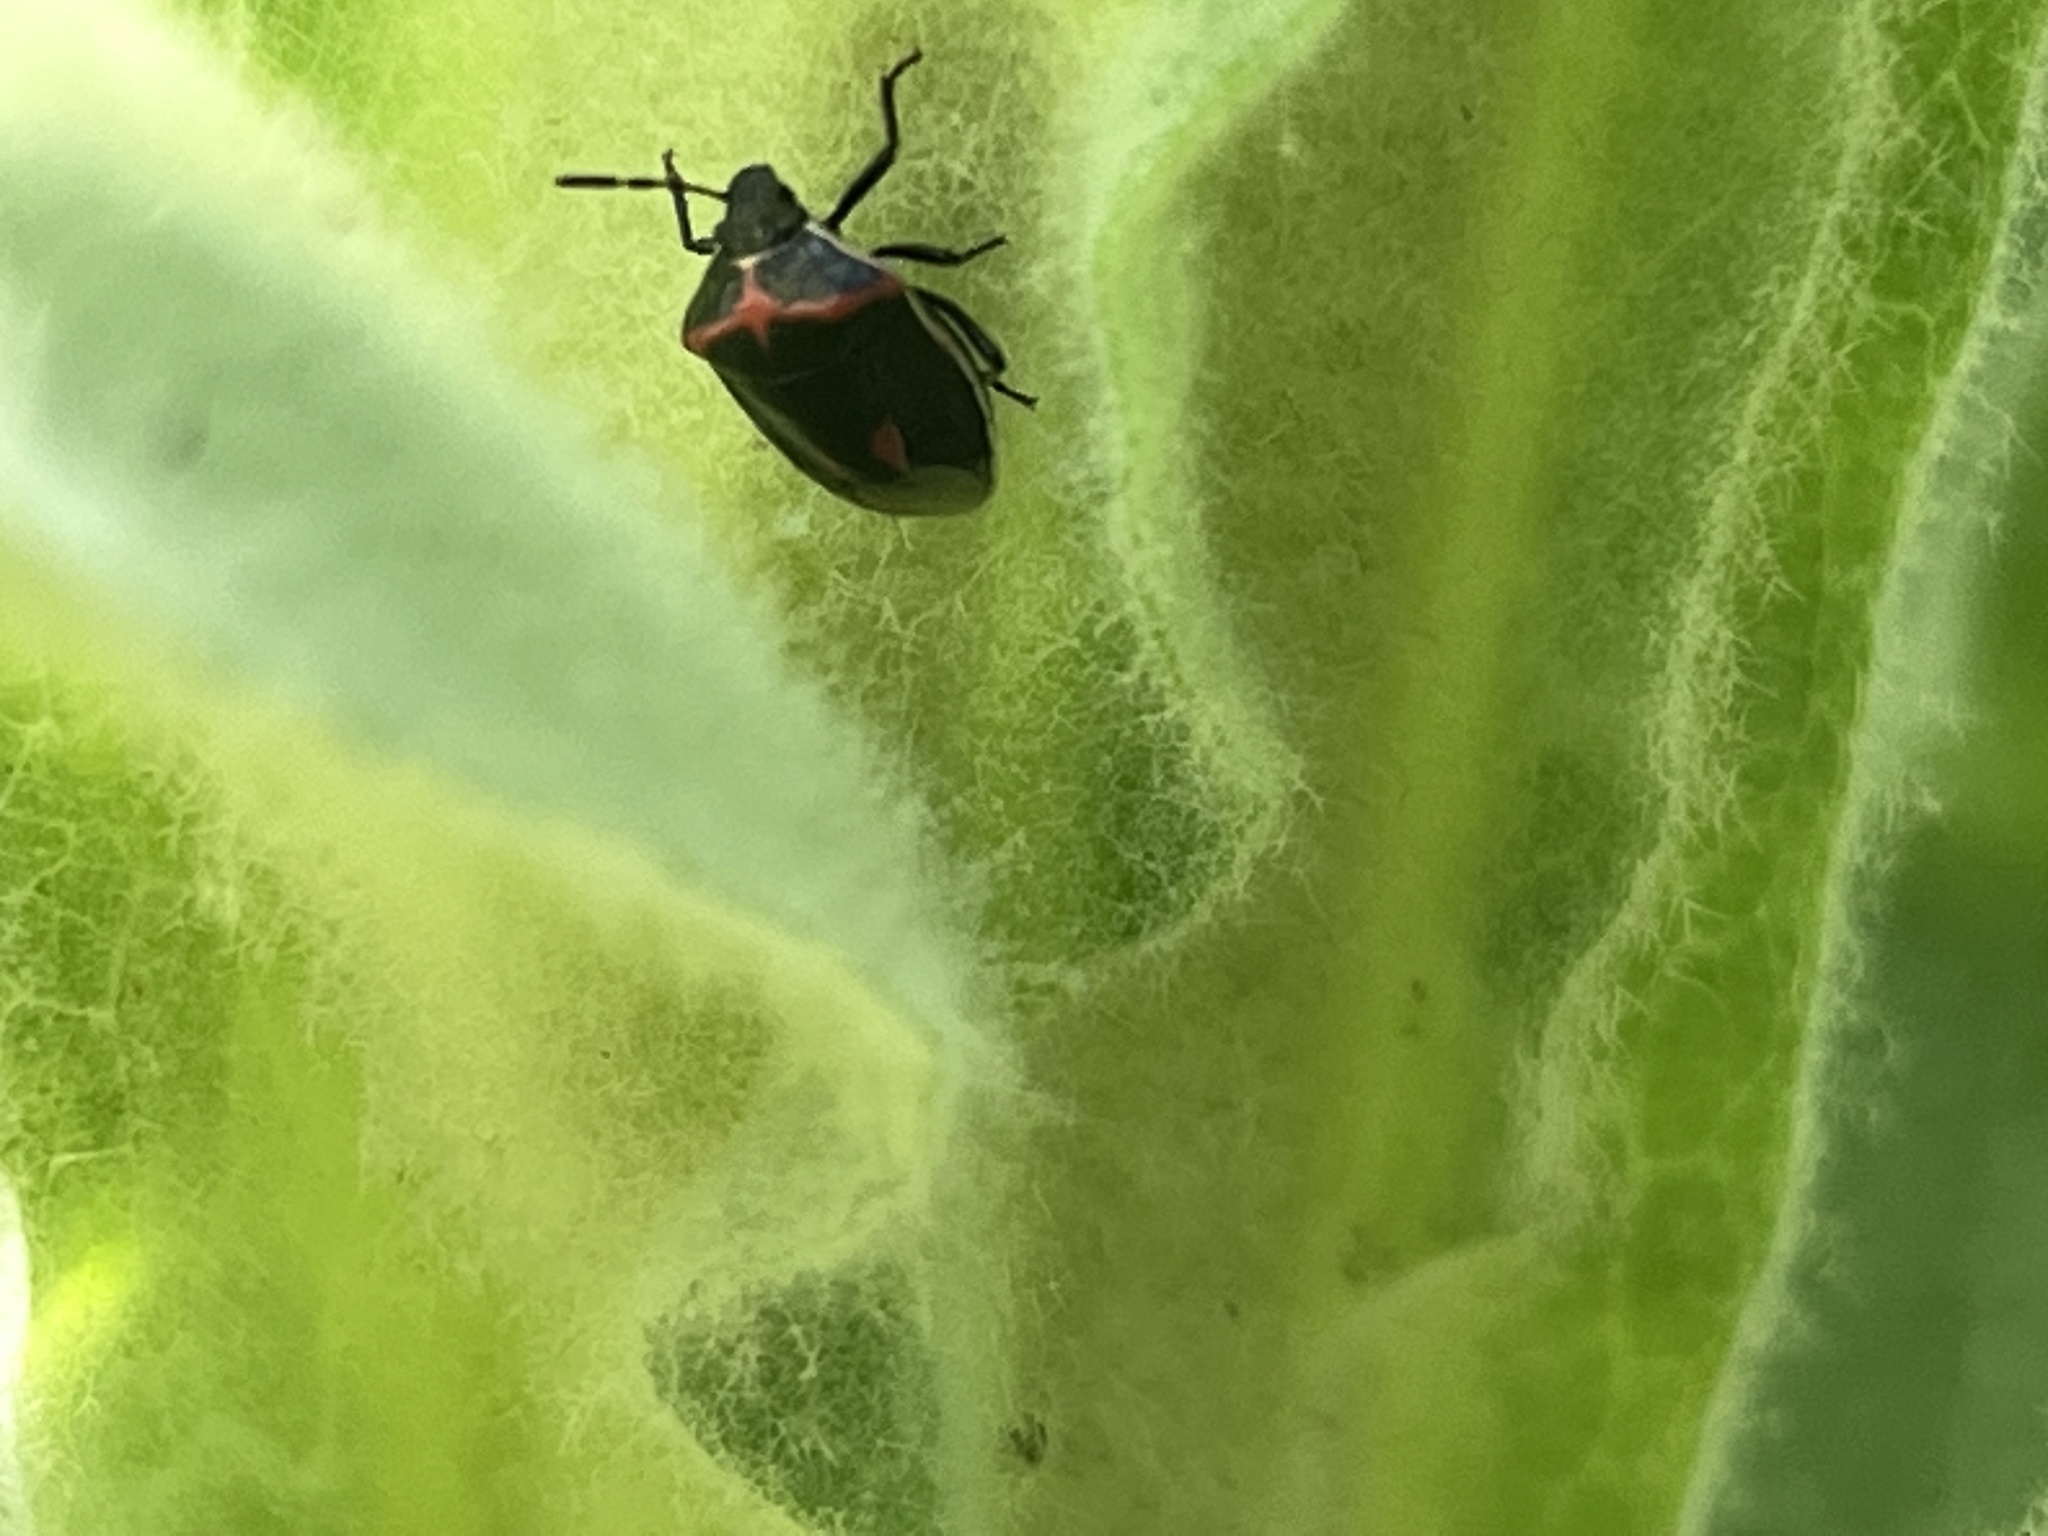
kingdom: Animalia
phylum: Arthropoda
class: Insecta
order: Hemiptera
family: Pentatomidae
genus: Cosmopepla
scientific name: Cosmopepla lintneriana
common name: Twice-stabbed stink bug
